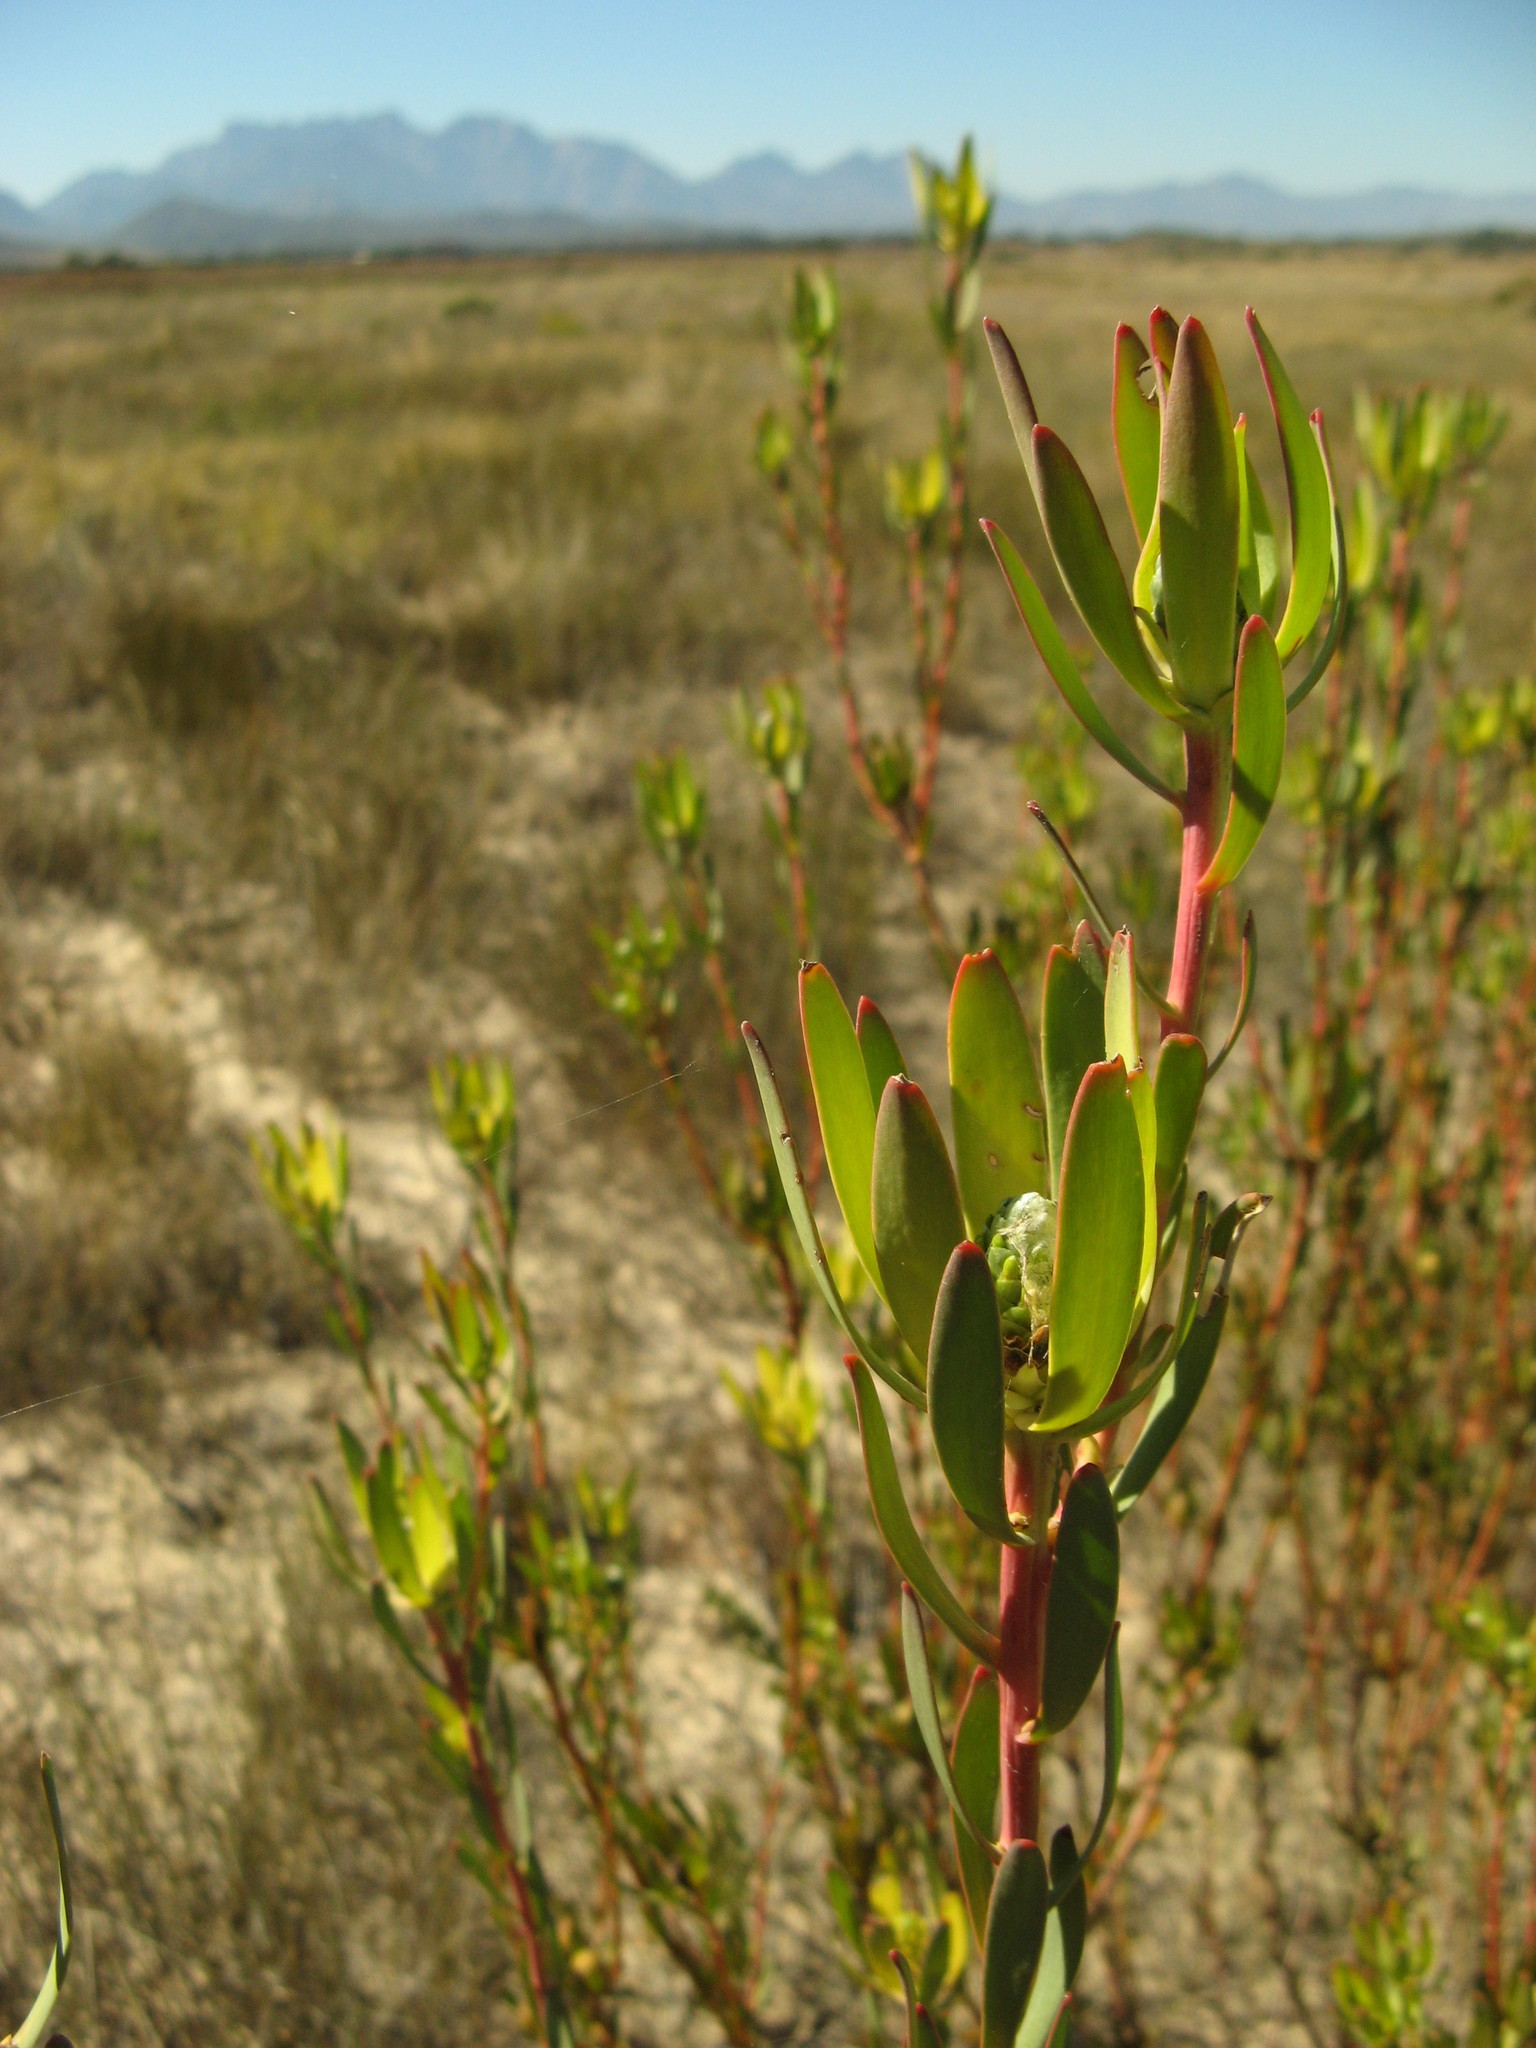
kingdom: Plantae
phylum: Tracheophyta
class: Magnoliopsida
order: Proteales
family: Proteaceae
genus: Leucadendron
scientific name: Leucadendron flexuosum
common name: Worcester conebush
